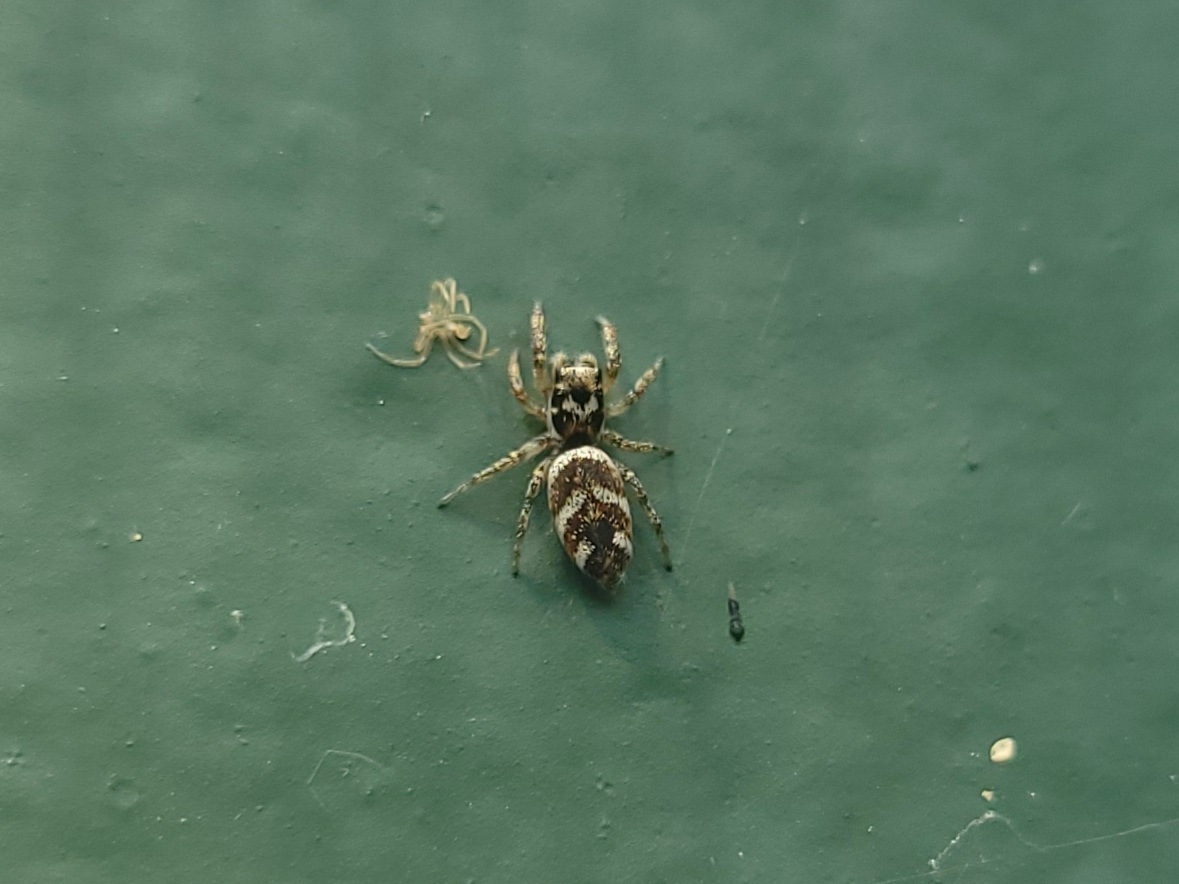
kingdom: Animalia
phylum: Arthropoda
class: Arachnida
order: Araneae
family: Salticidae
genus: Salticus
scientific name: Salticus scenicus
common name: Zebra jumper
